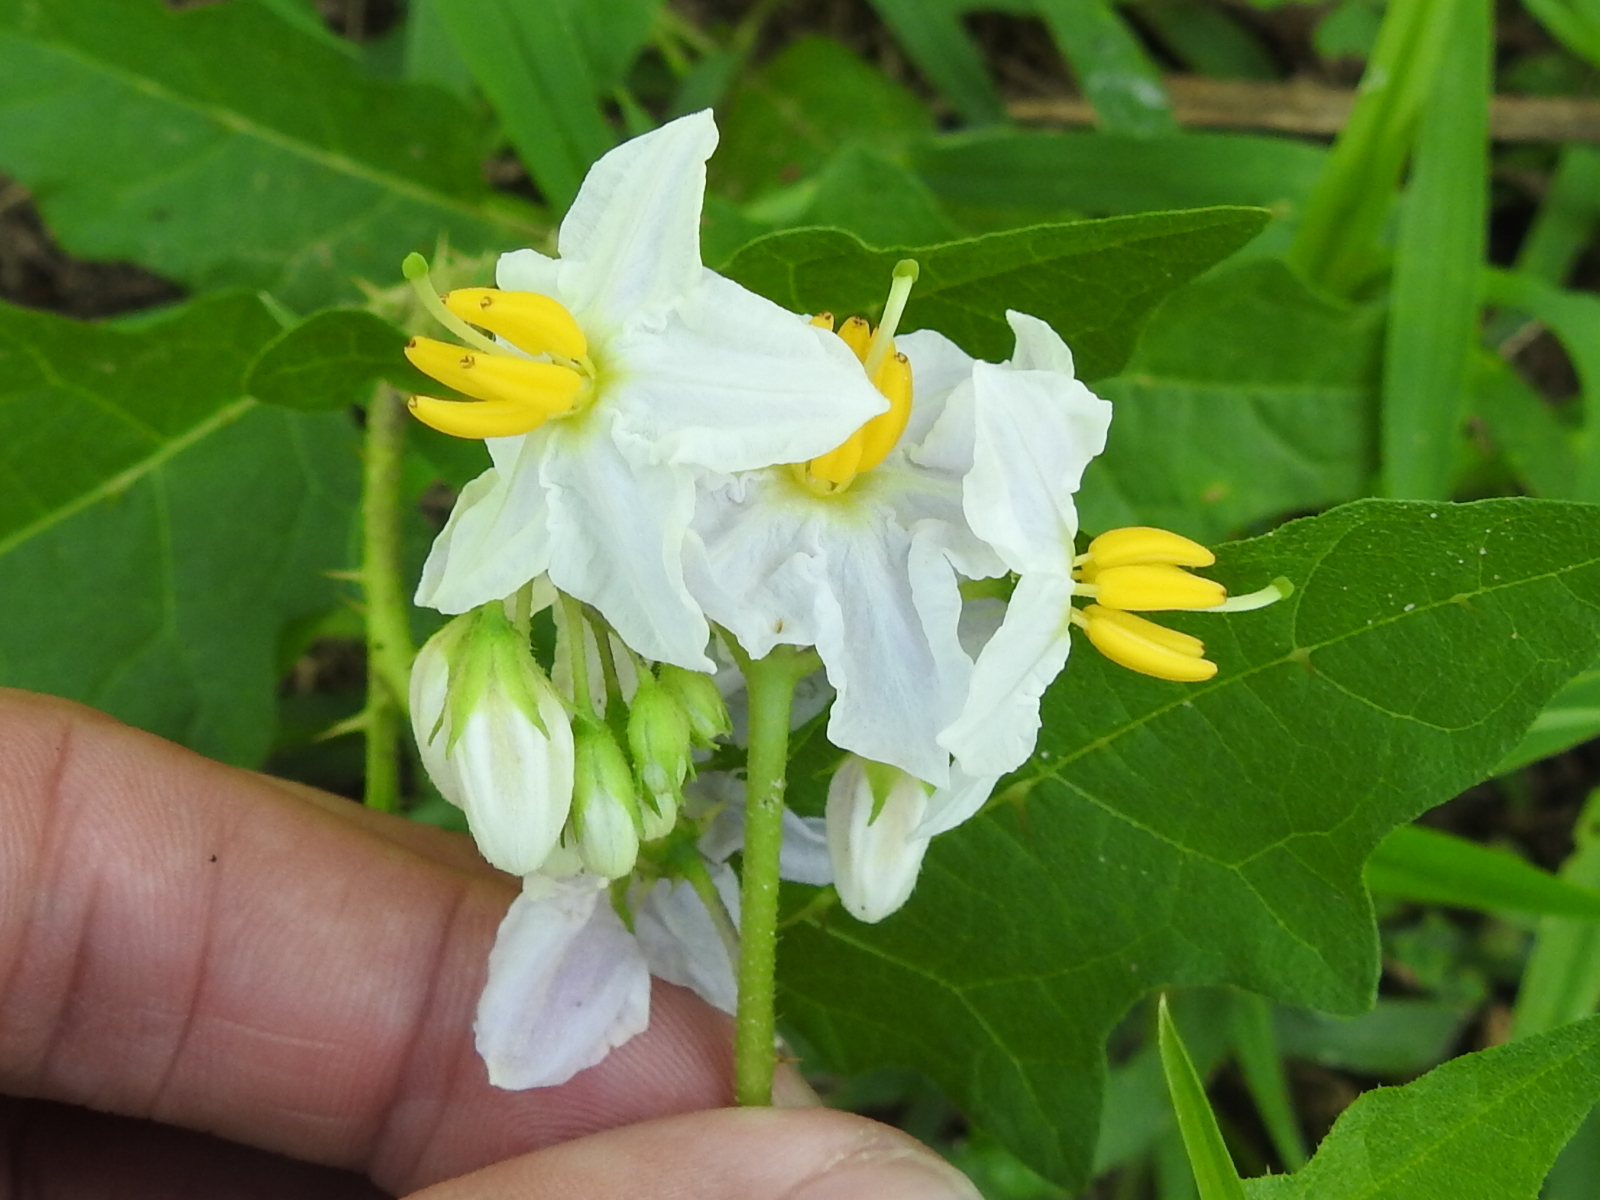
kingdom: Plantae
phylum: Tracheophyta
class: Magnoliopsida
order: Solanales
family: Solanaceae
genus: Solanum
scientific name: Solanum carolinense
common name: Horse-nettle
